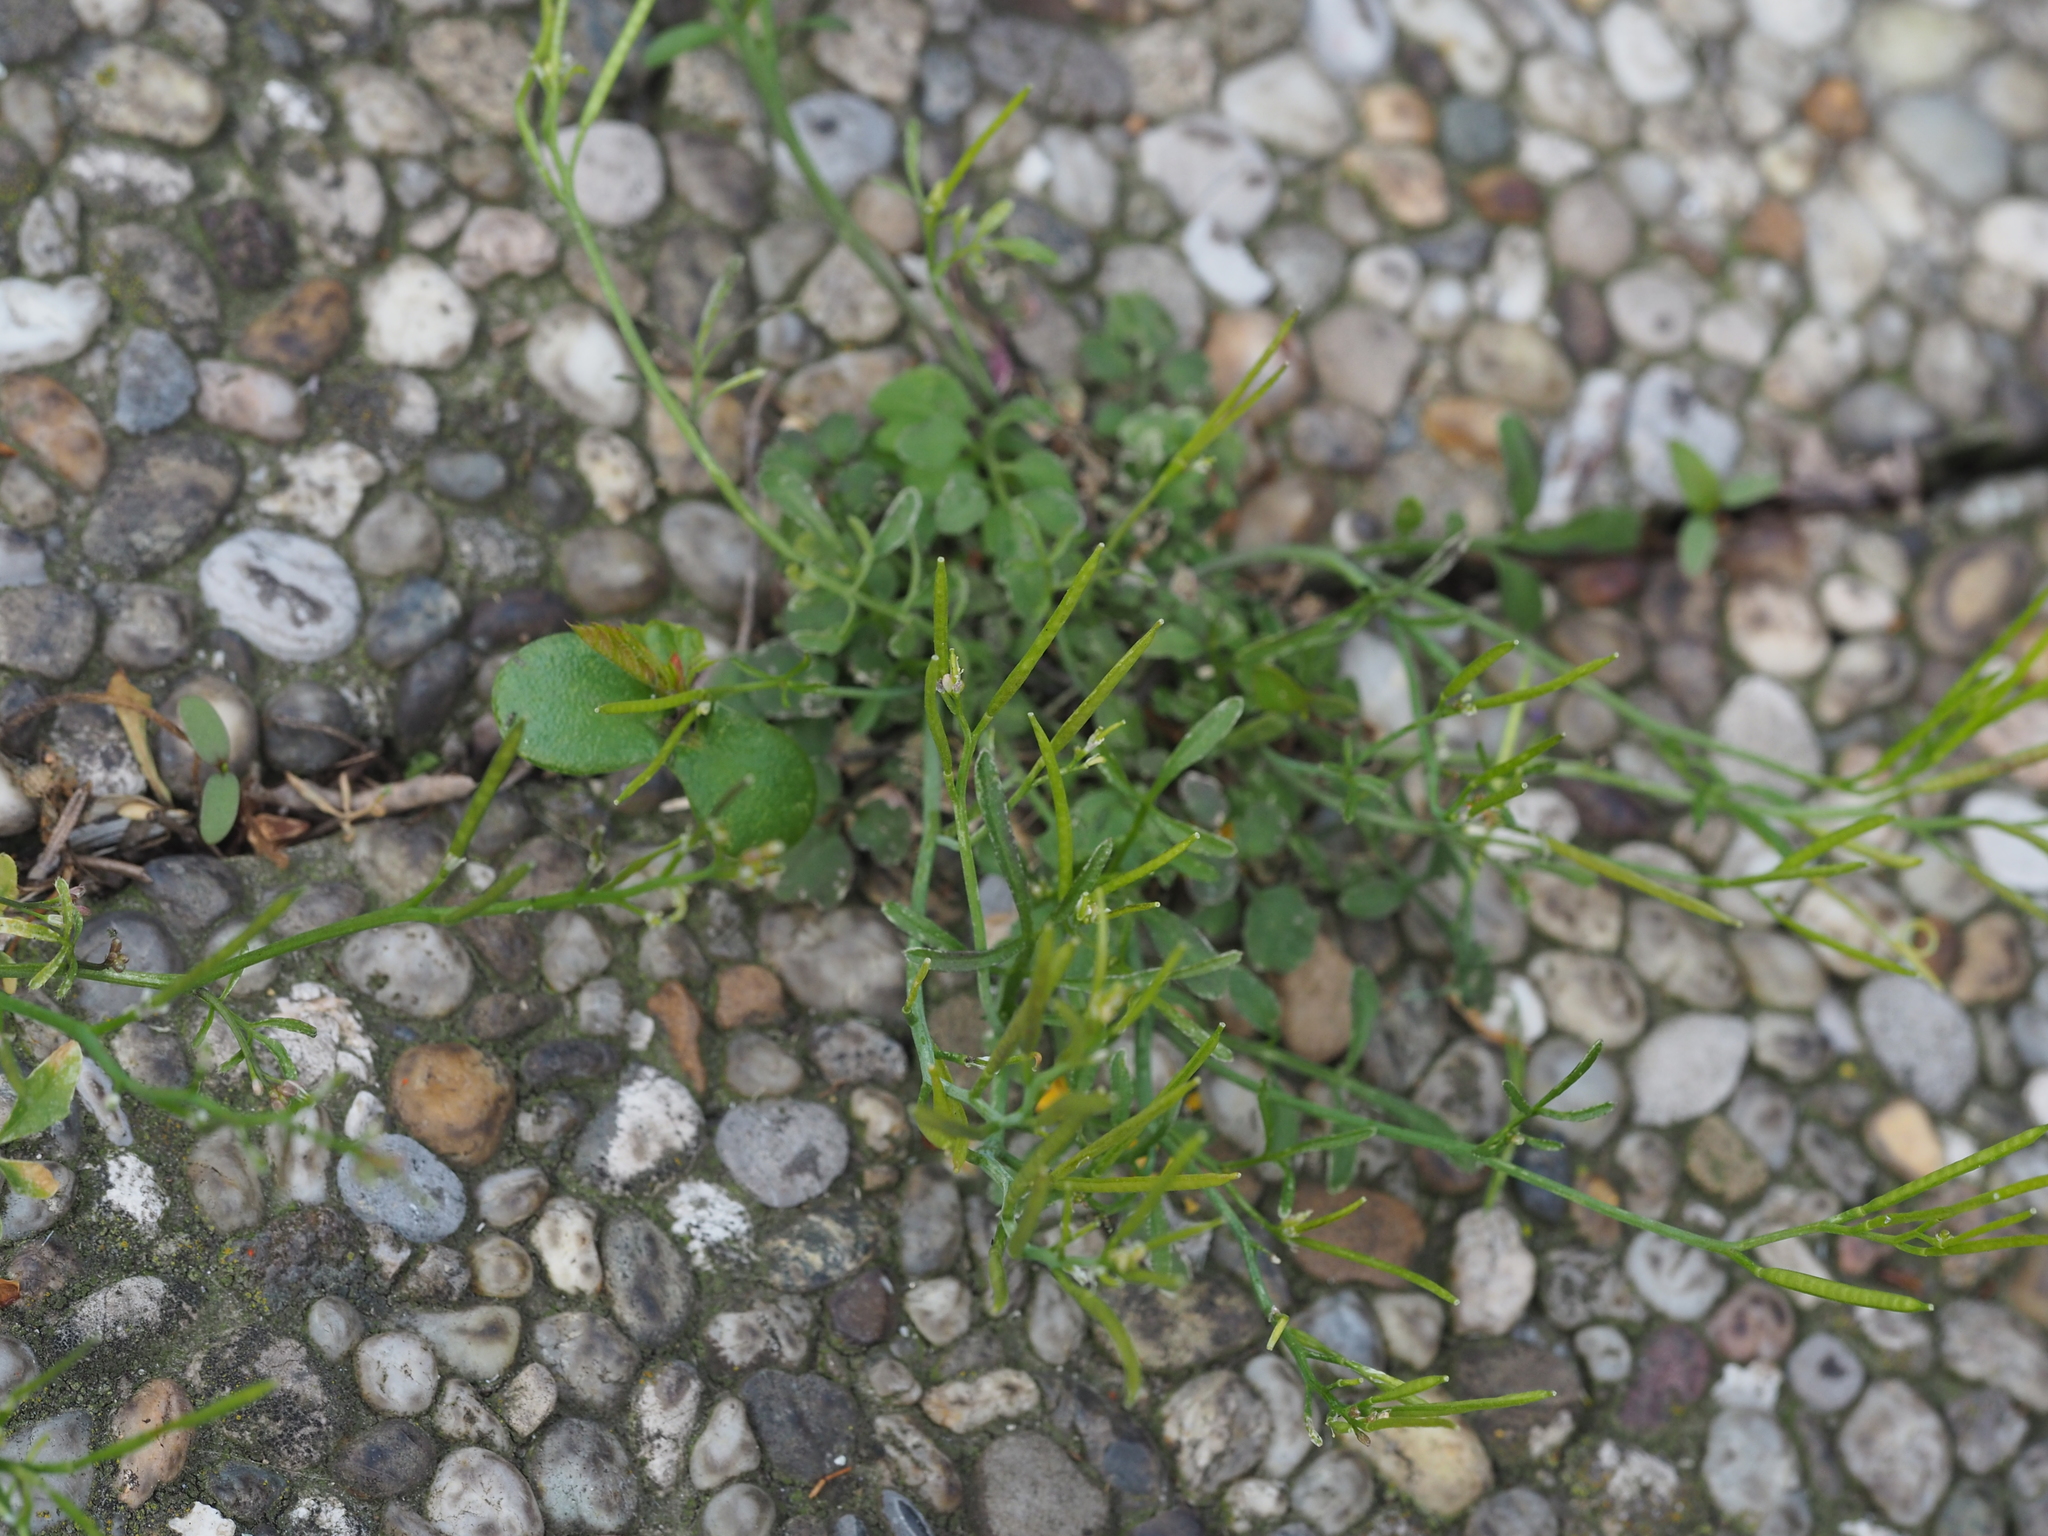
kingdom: Plantae
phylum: Tracheophyta
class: Magnoliopsida
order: Brassicales
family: Brassicaceae
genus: Cardamine
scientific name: Cardamine hirsuta
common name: Hairy bittercress
